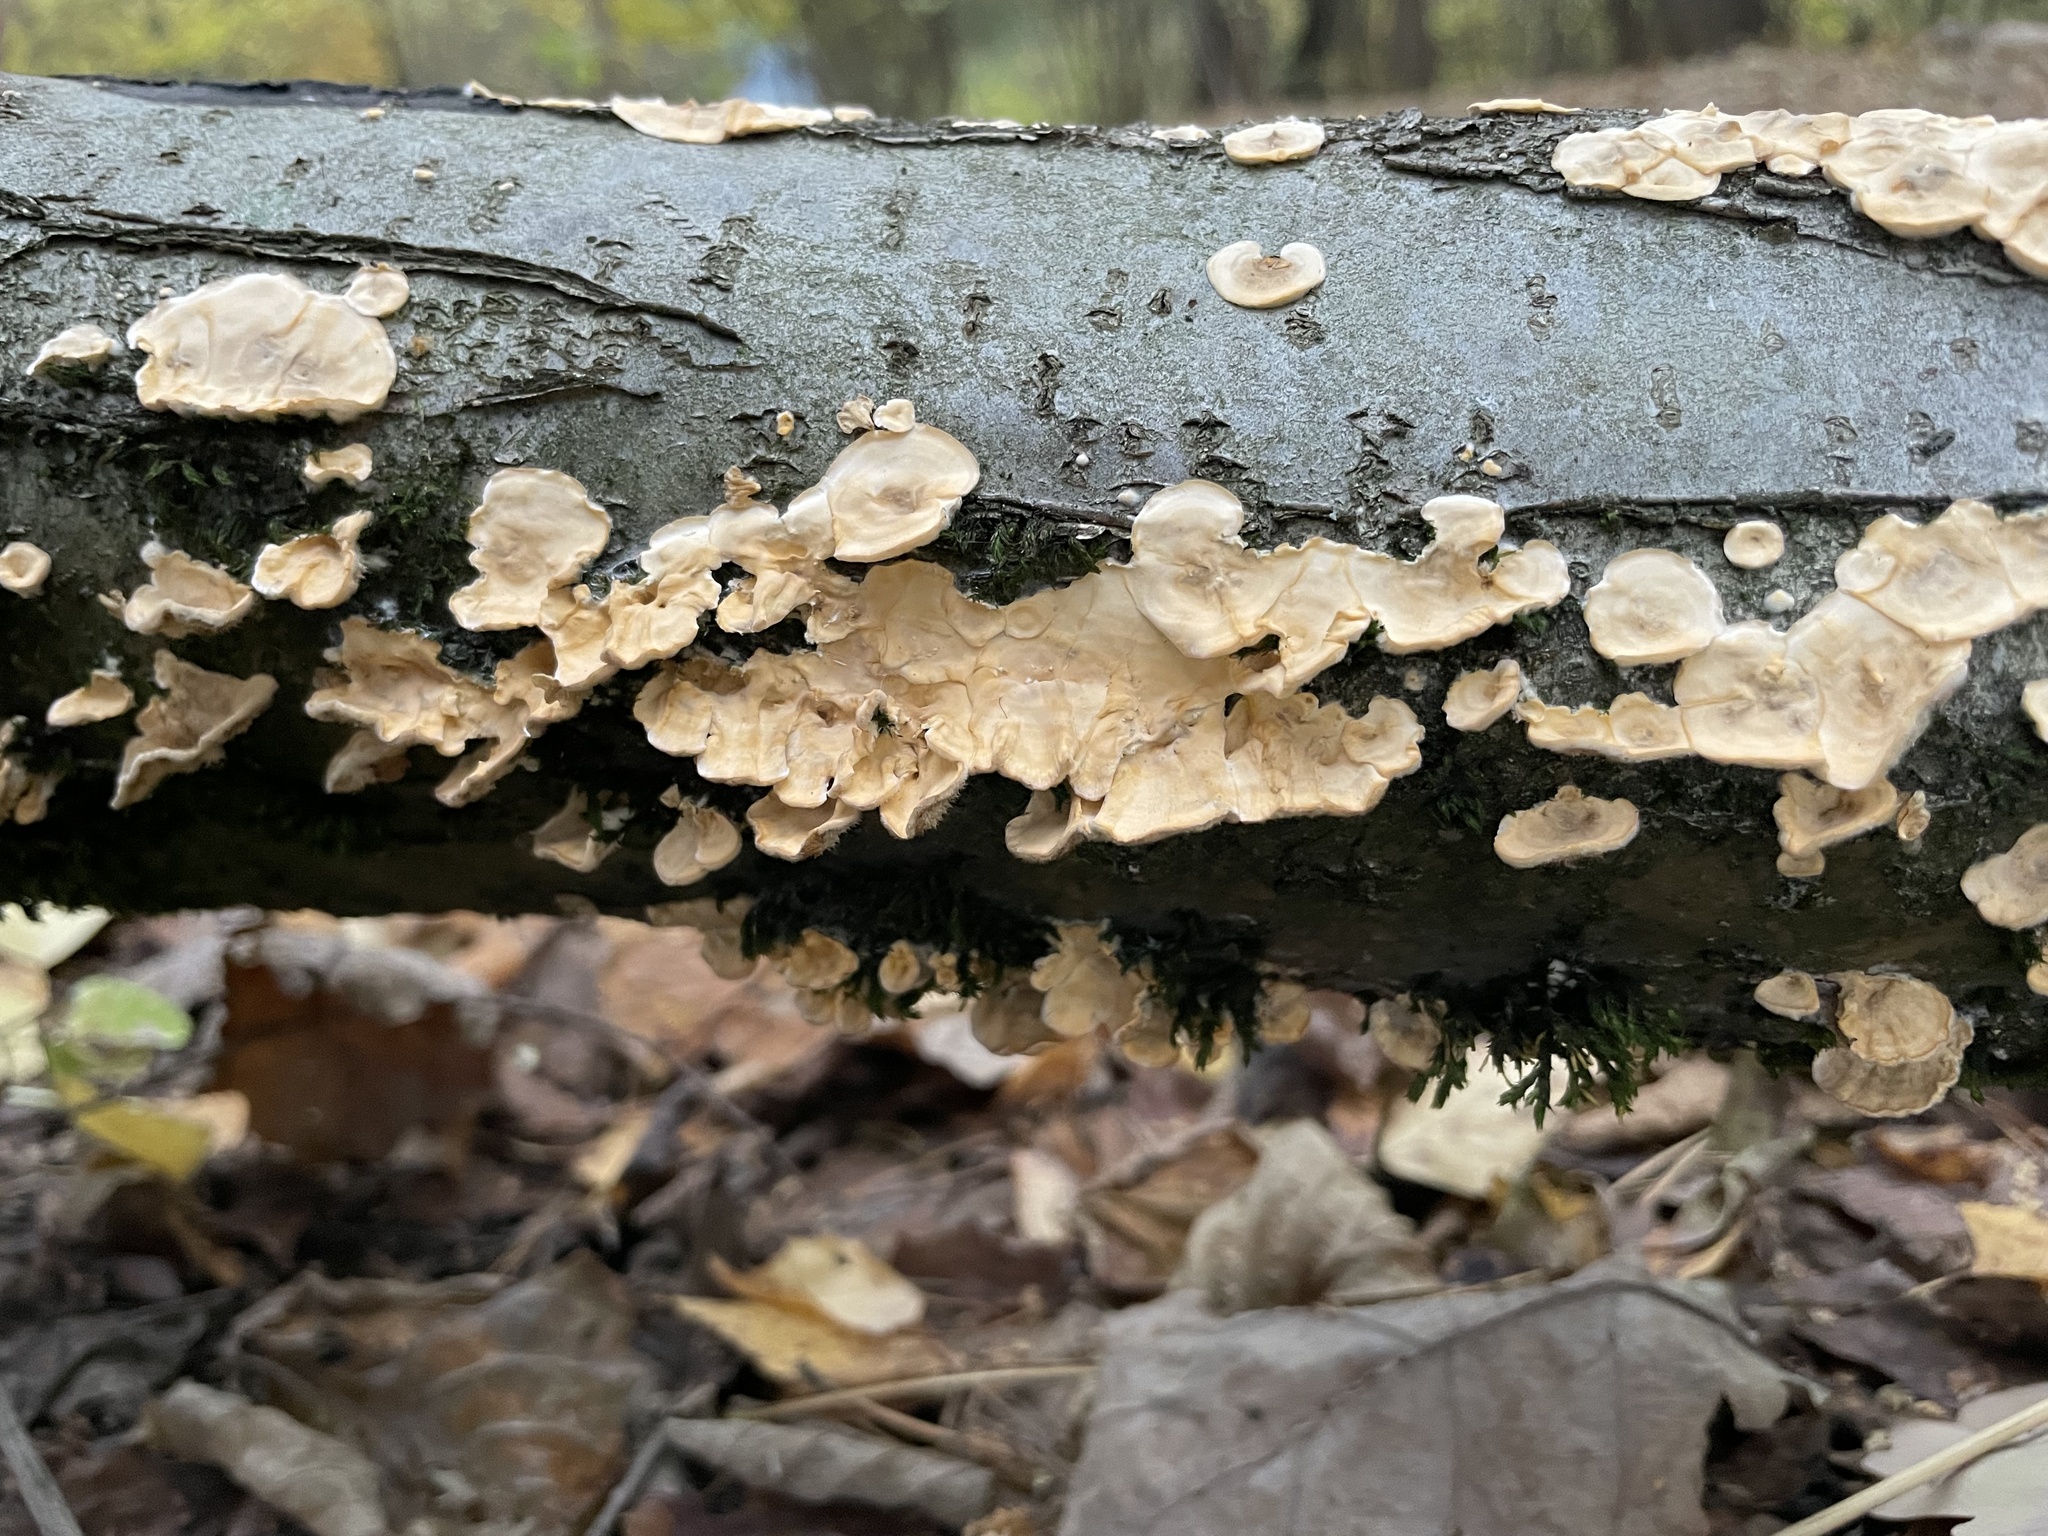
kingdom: Fungi
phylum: Basidiomycota
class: Agaricomycetes
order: Polyporales
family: Polyporaceae
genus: Trametes
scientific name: Trametes ochracea
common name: Ochre bracket
